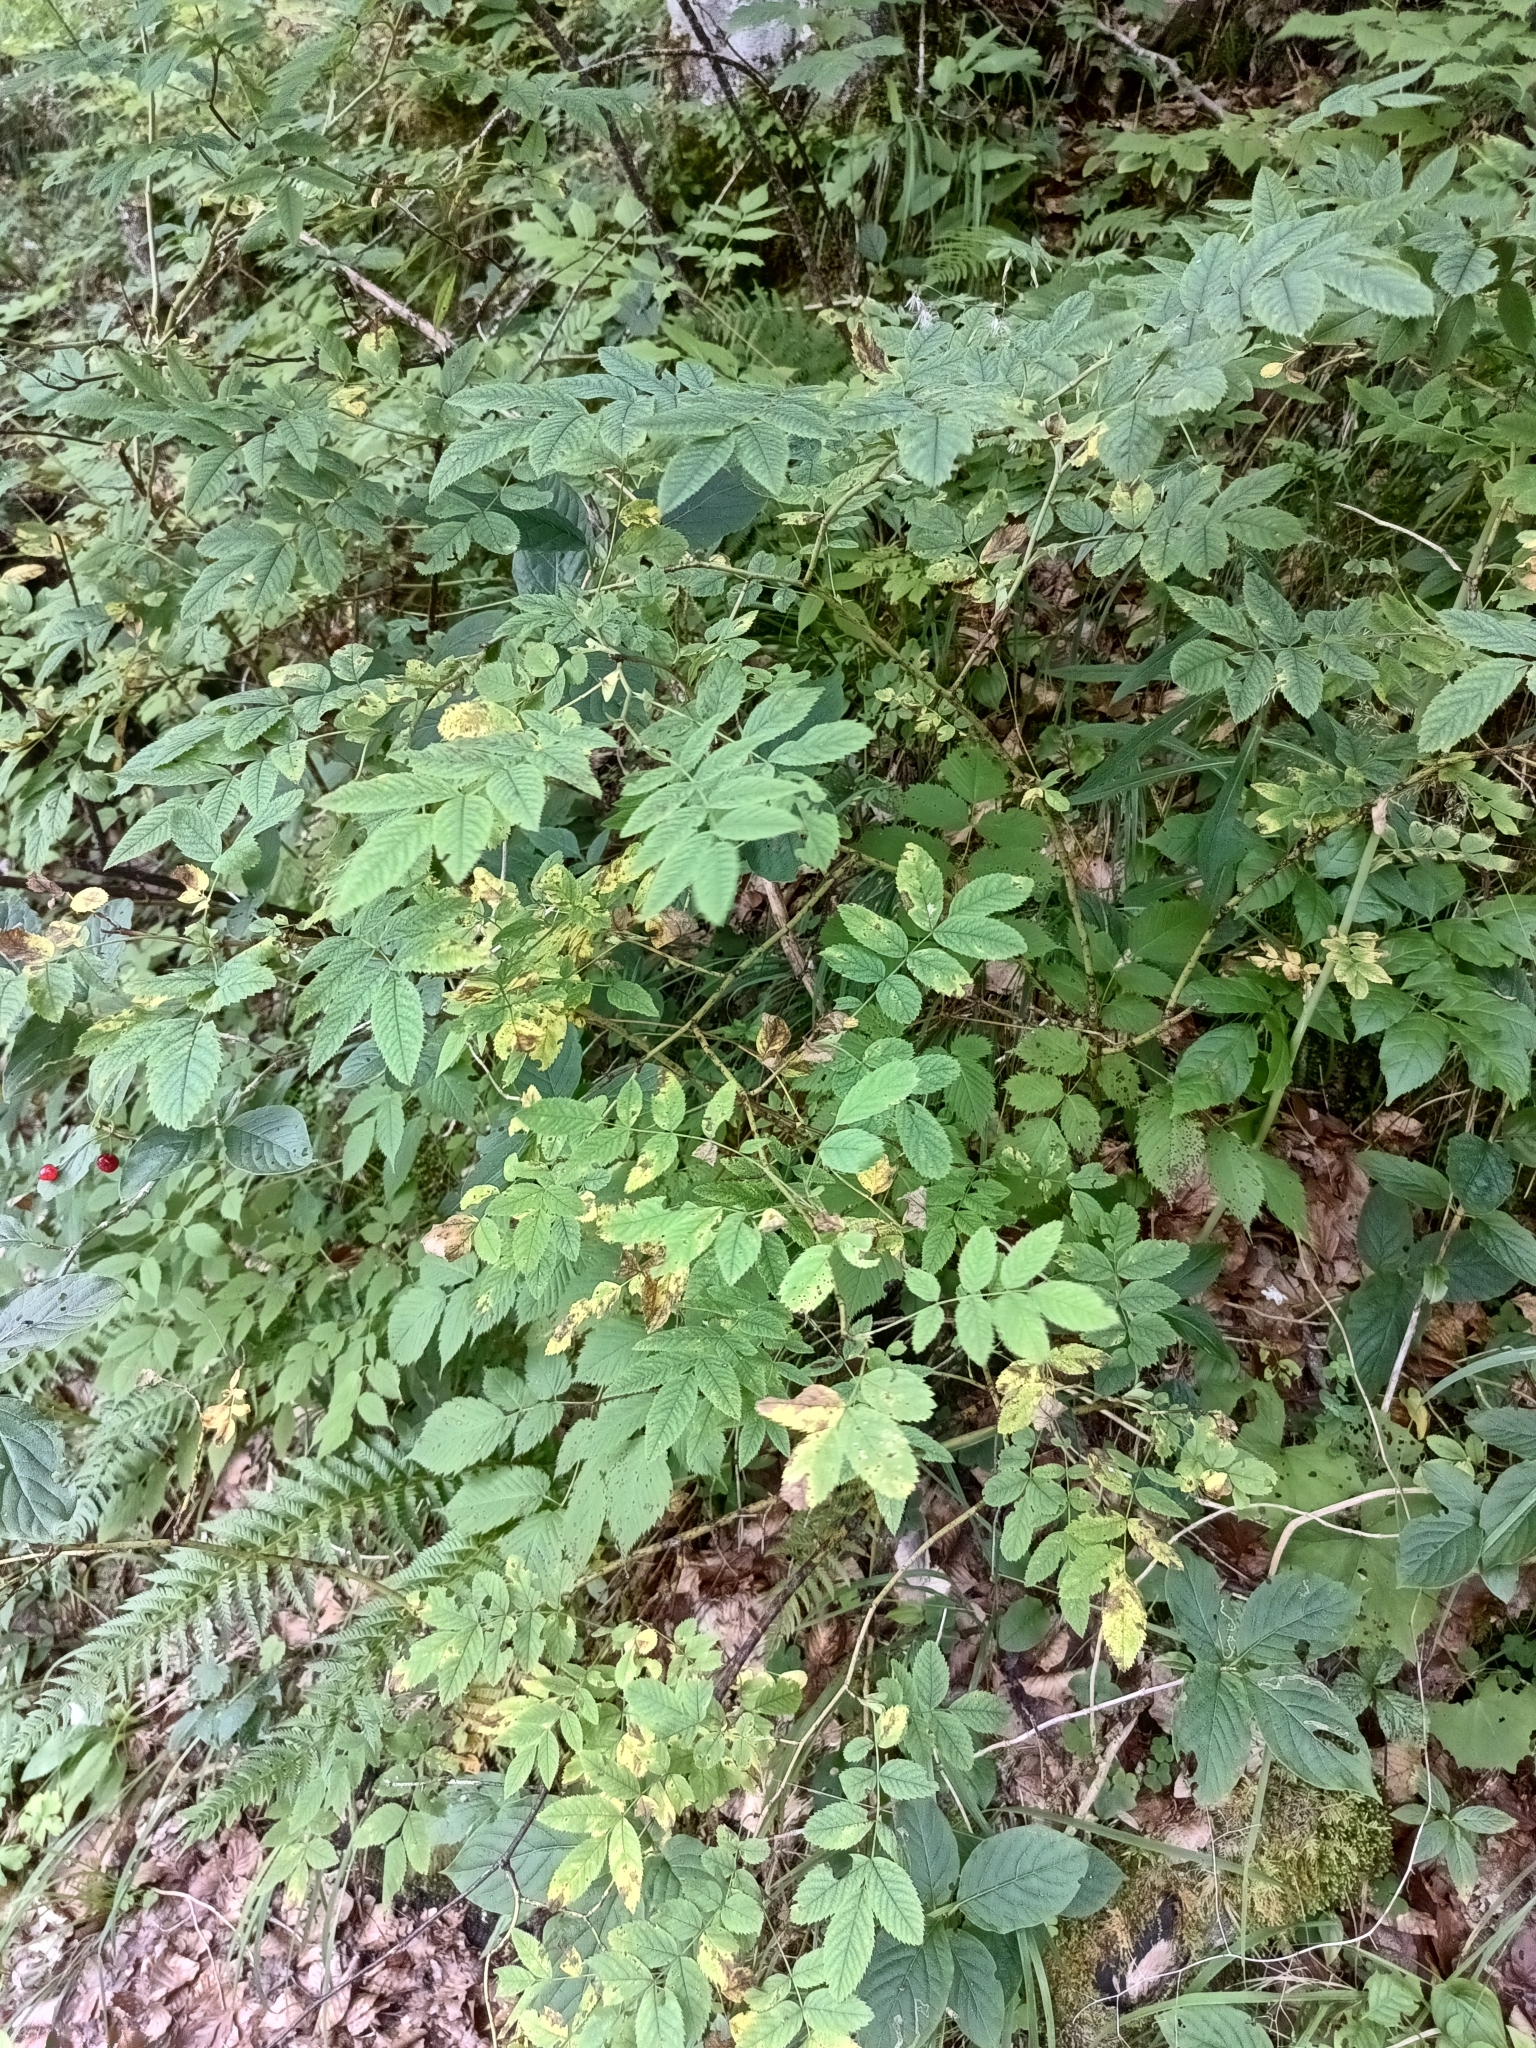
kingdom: Plantae
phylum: Tracheophyta
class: Magnoliopsida
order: Rosales
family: Rosaceae
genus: Rosa
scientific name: Rosa pendulina
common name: Alpine rose
